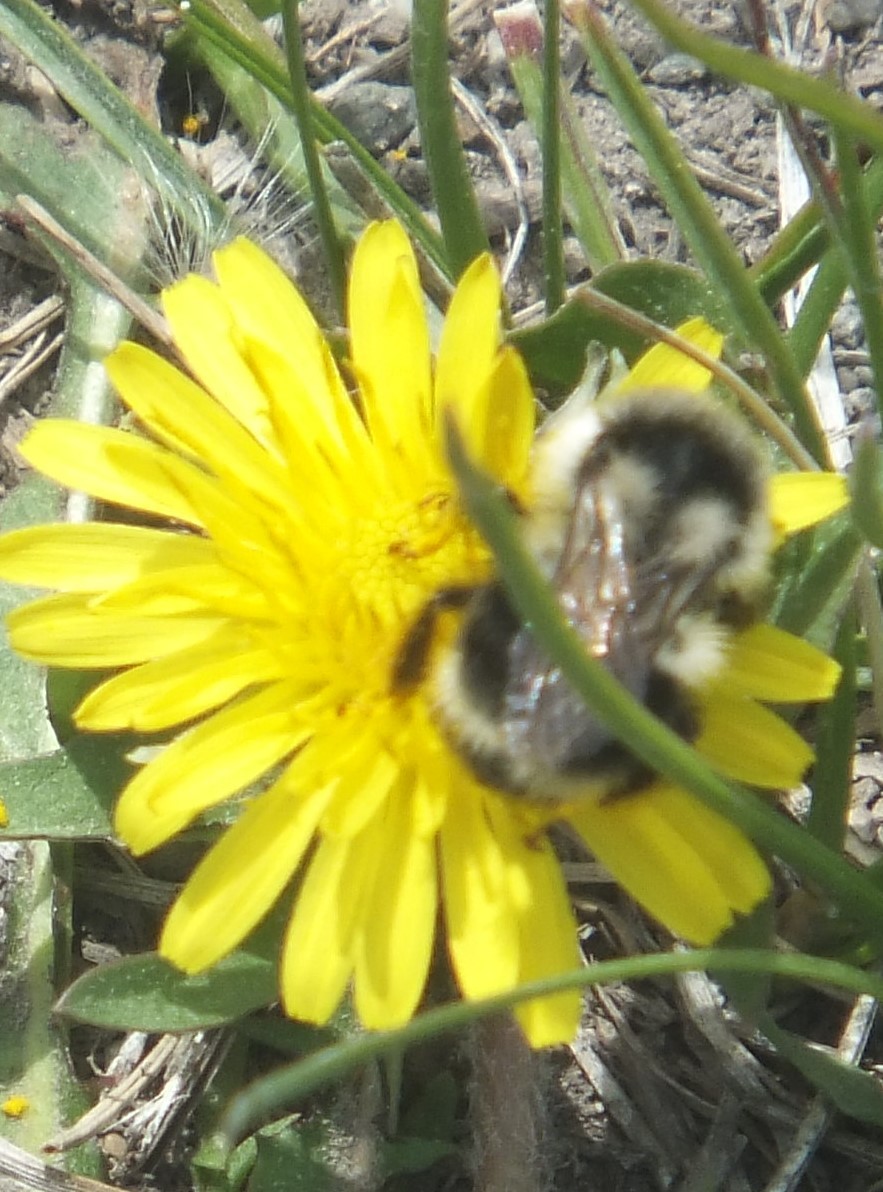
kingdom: Animalia
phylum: Arthropoda
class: Insecta
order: Hymenoptera
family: Apidae
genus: Bombus
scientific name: Bombus vancouverensis
